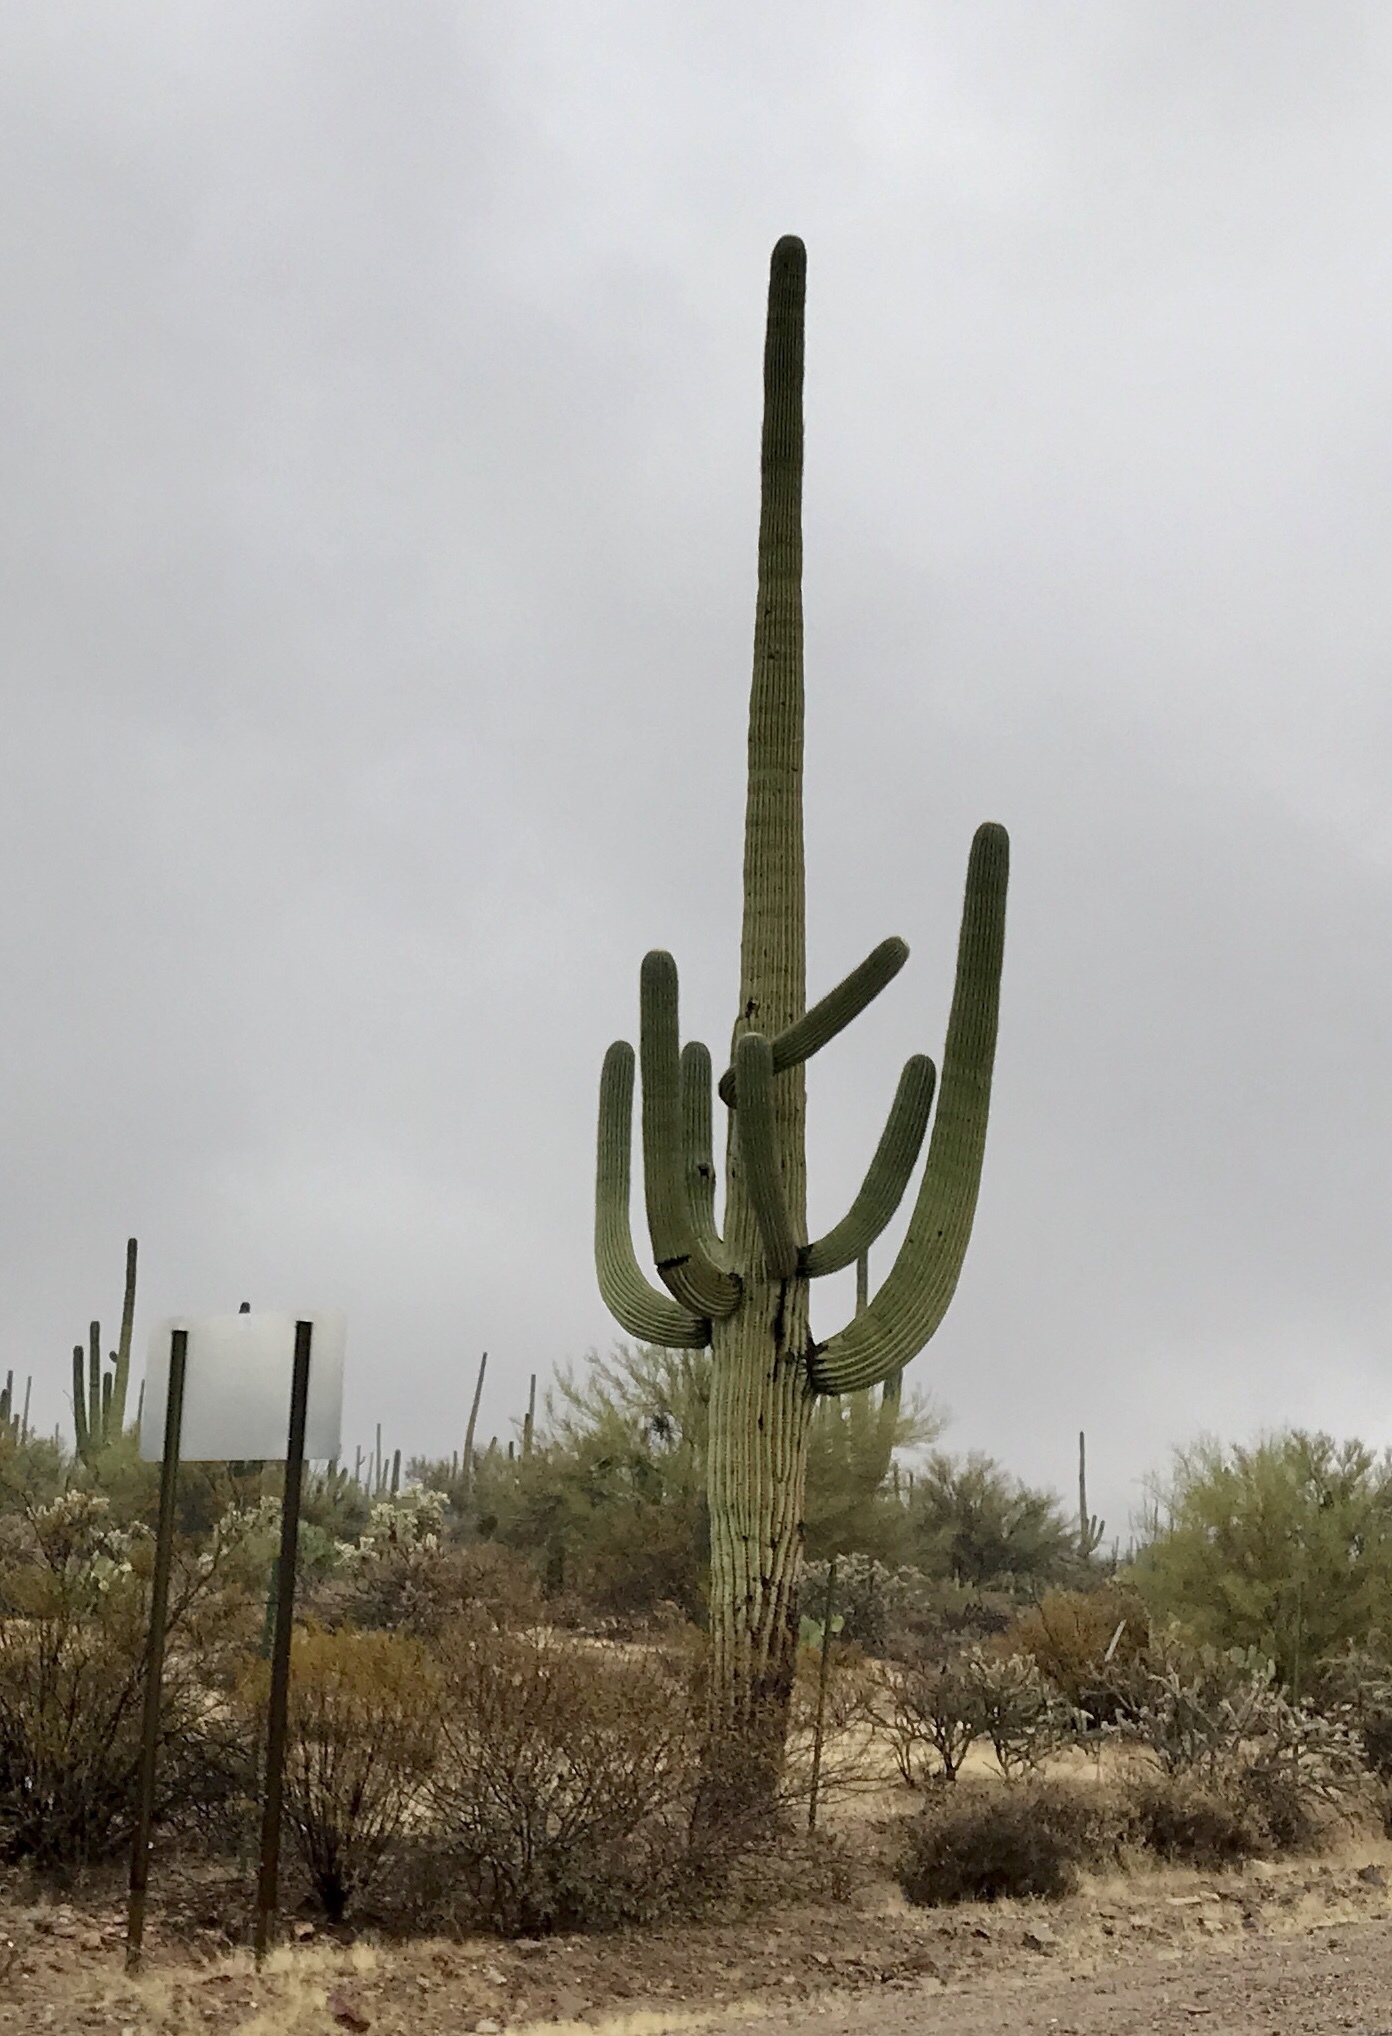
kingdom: Plantae
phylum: Tracheophyta
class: Magnoliopsida
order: Caryophyllales
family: Cactaceae
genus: Carnegiea
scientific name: Carnegiea gigantea
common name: Saguaro
